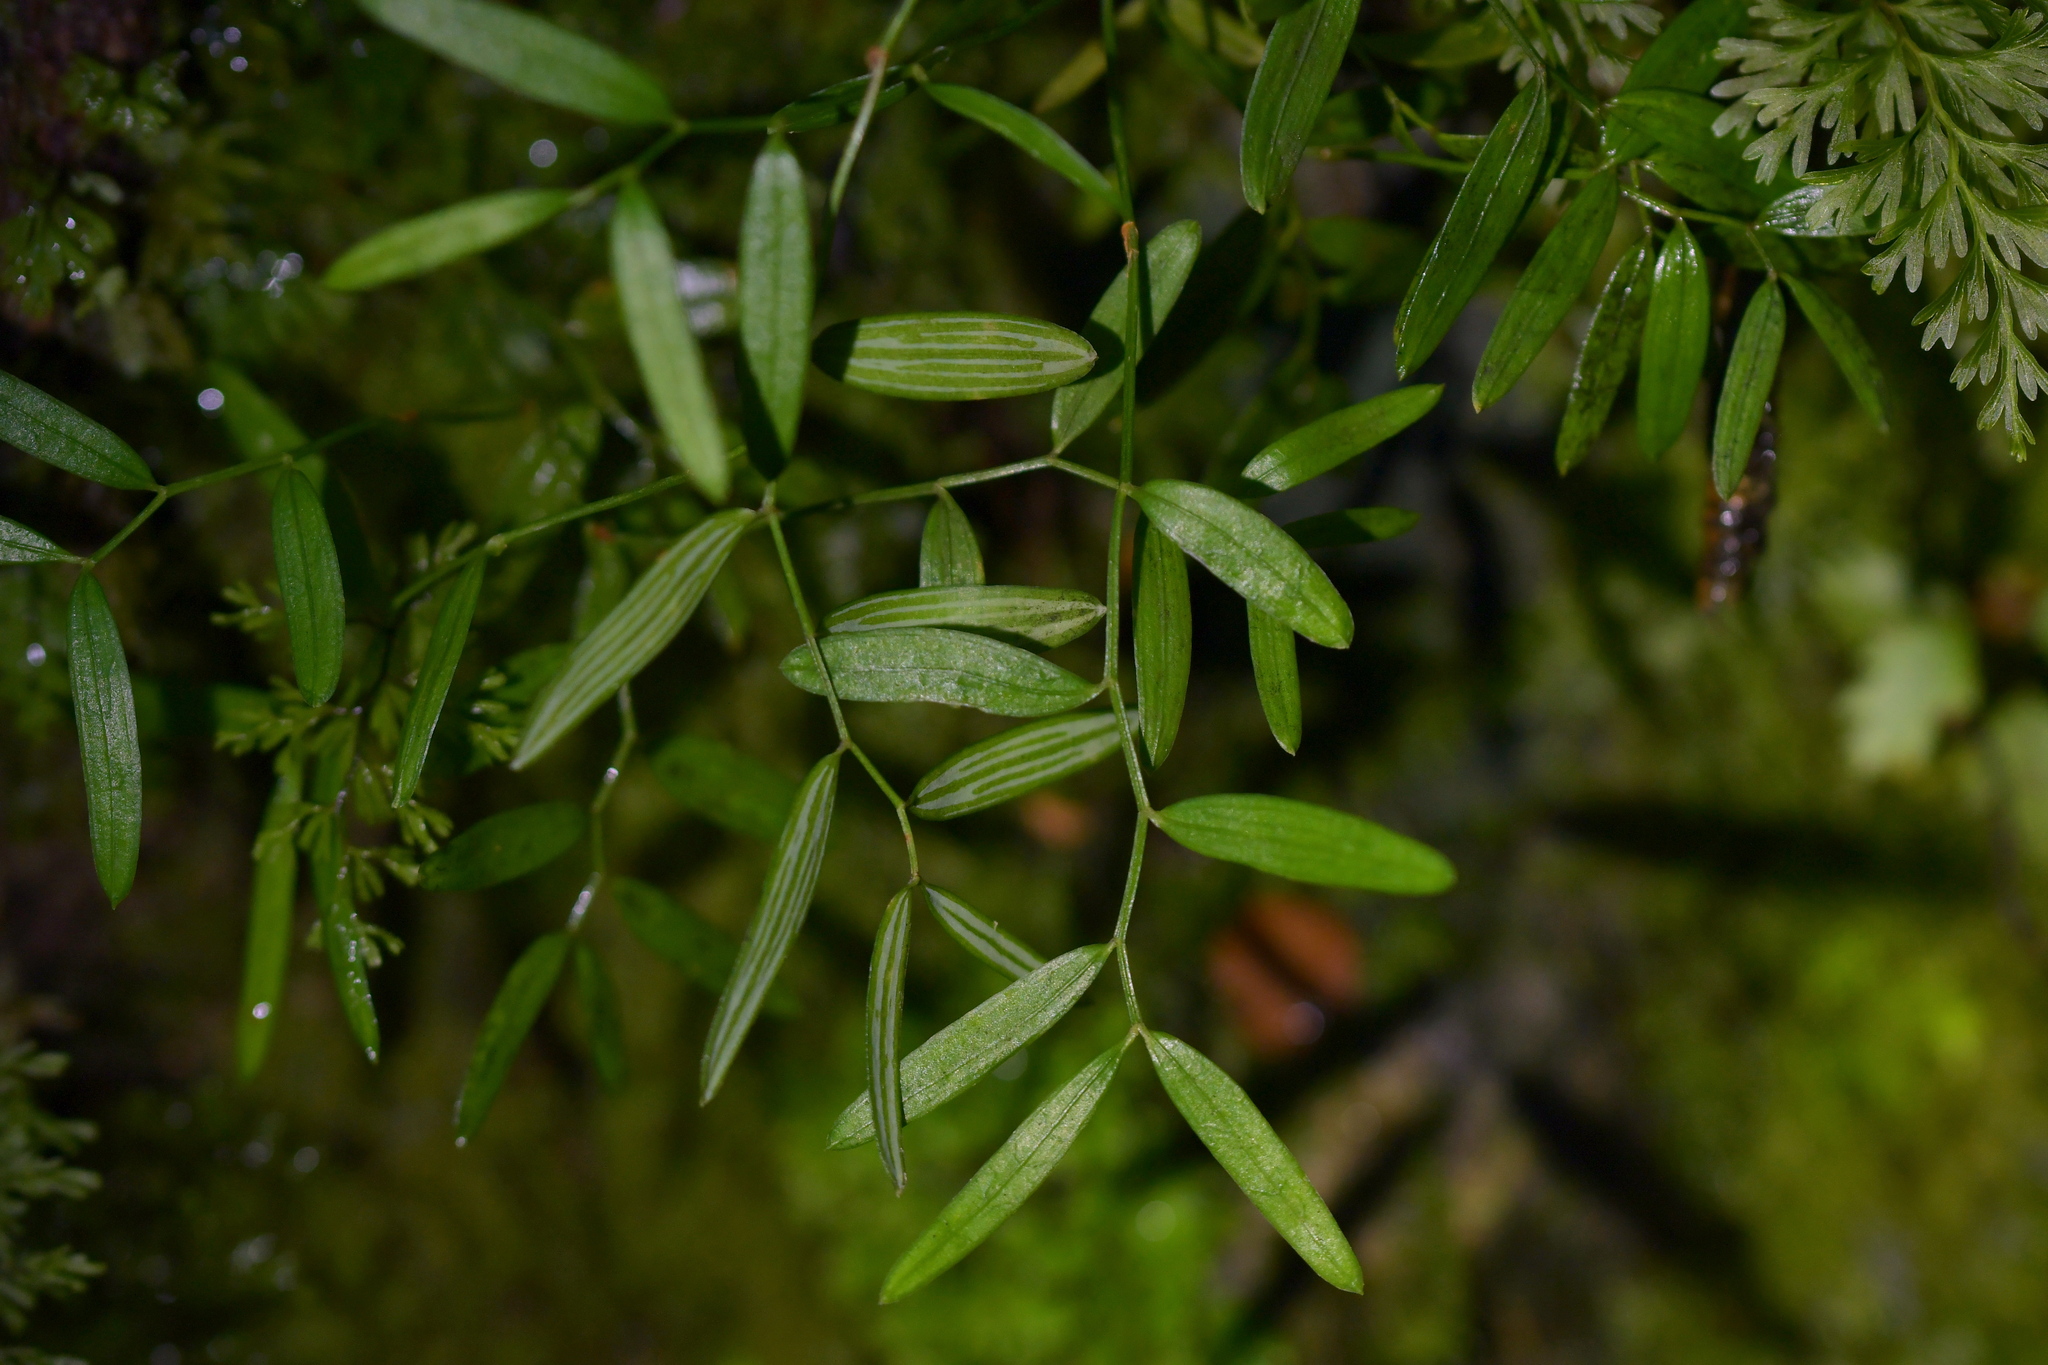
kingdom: Plantae
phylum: Tracheophyta
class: Liliopsida
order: Liliales
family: Alstroemeriaceae
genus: Luzuriaga
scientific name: Luzuriaga parviflora
